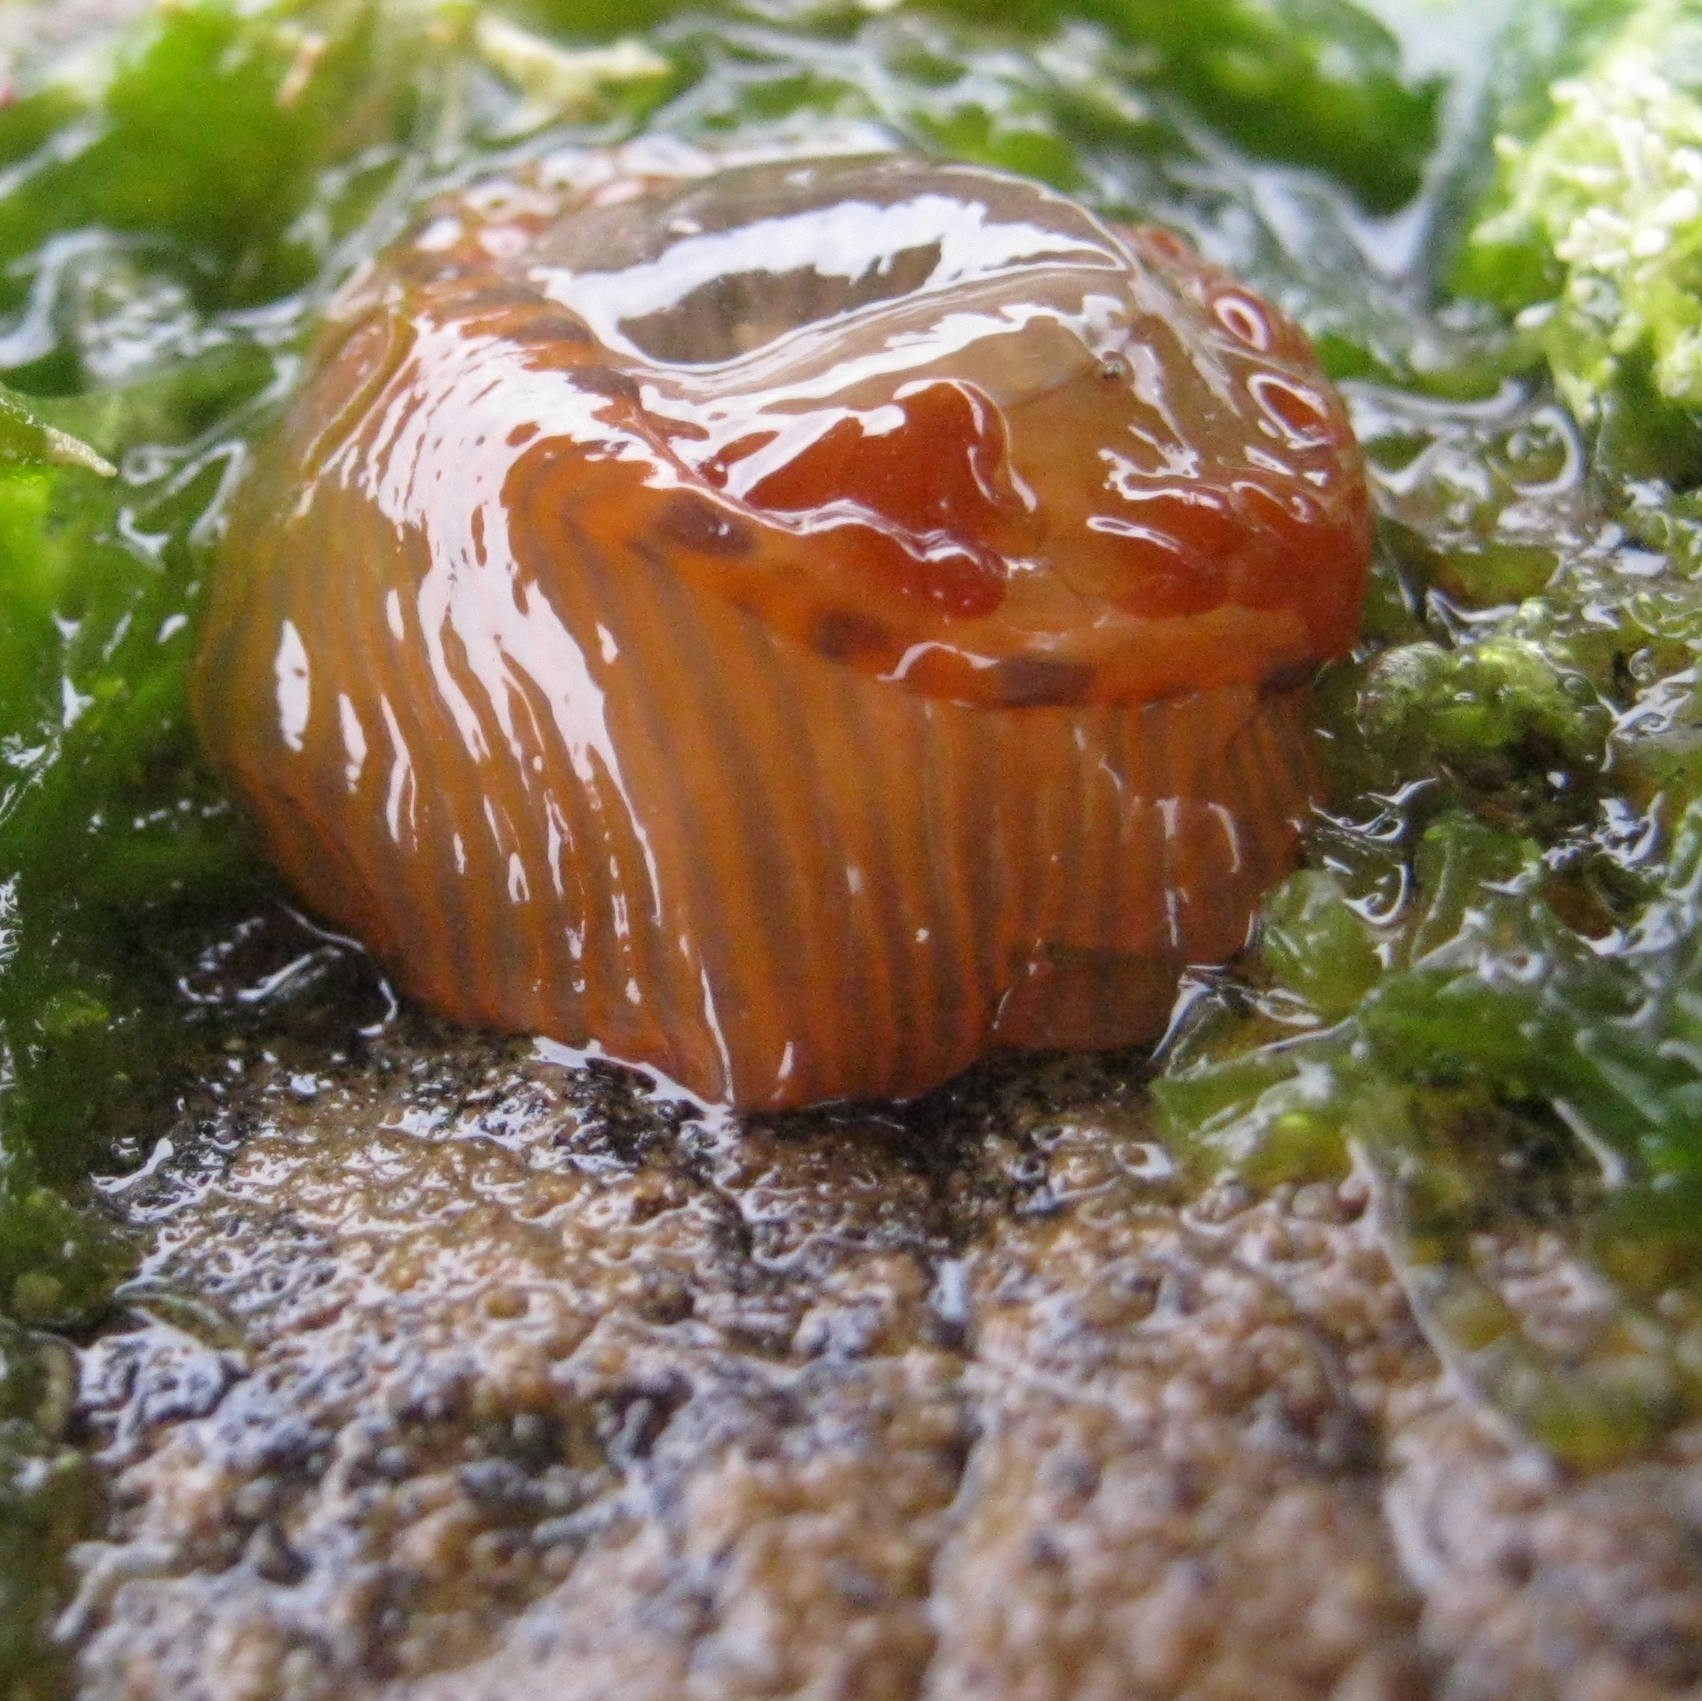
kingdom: Animalia
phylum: Cnidaria
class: Anthozoa
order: Actiniaria
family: Actiniidae
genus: Epiactis
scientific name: Epiactis
